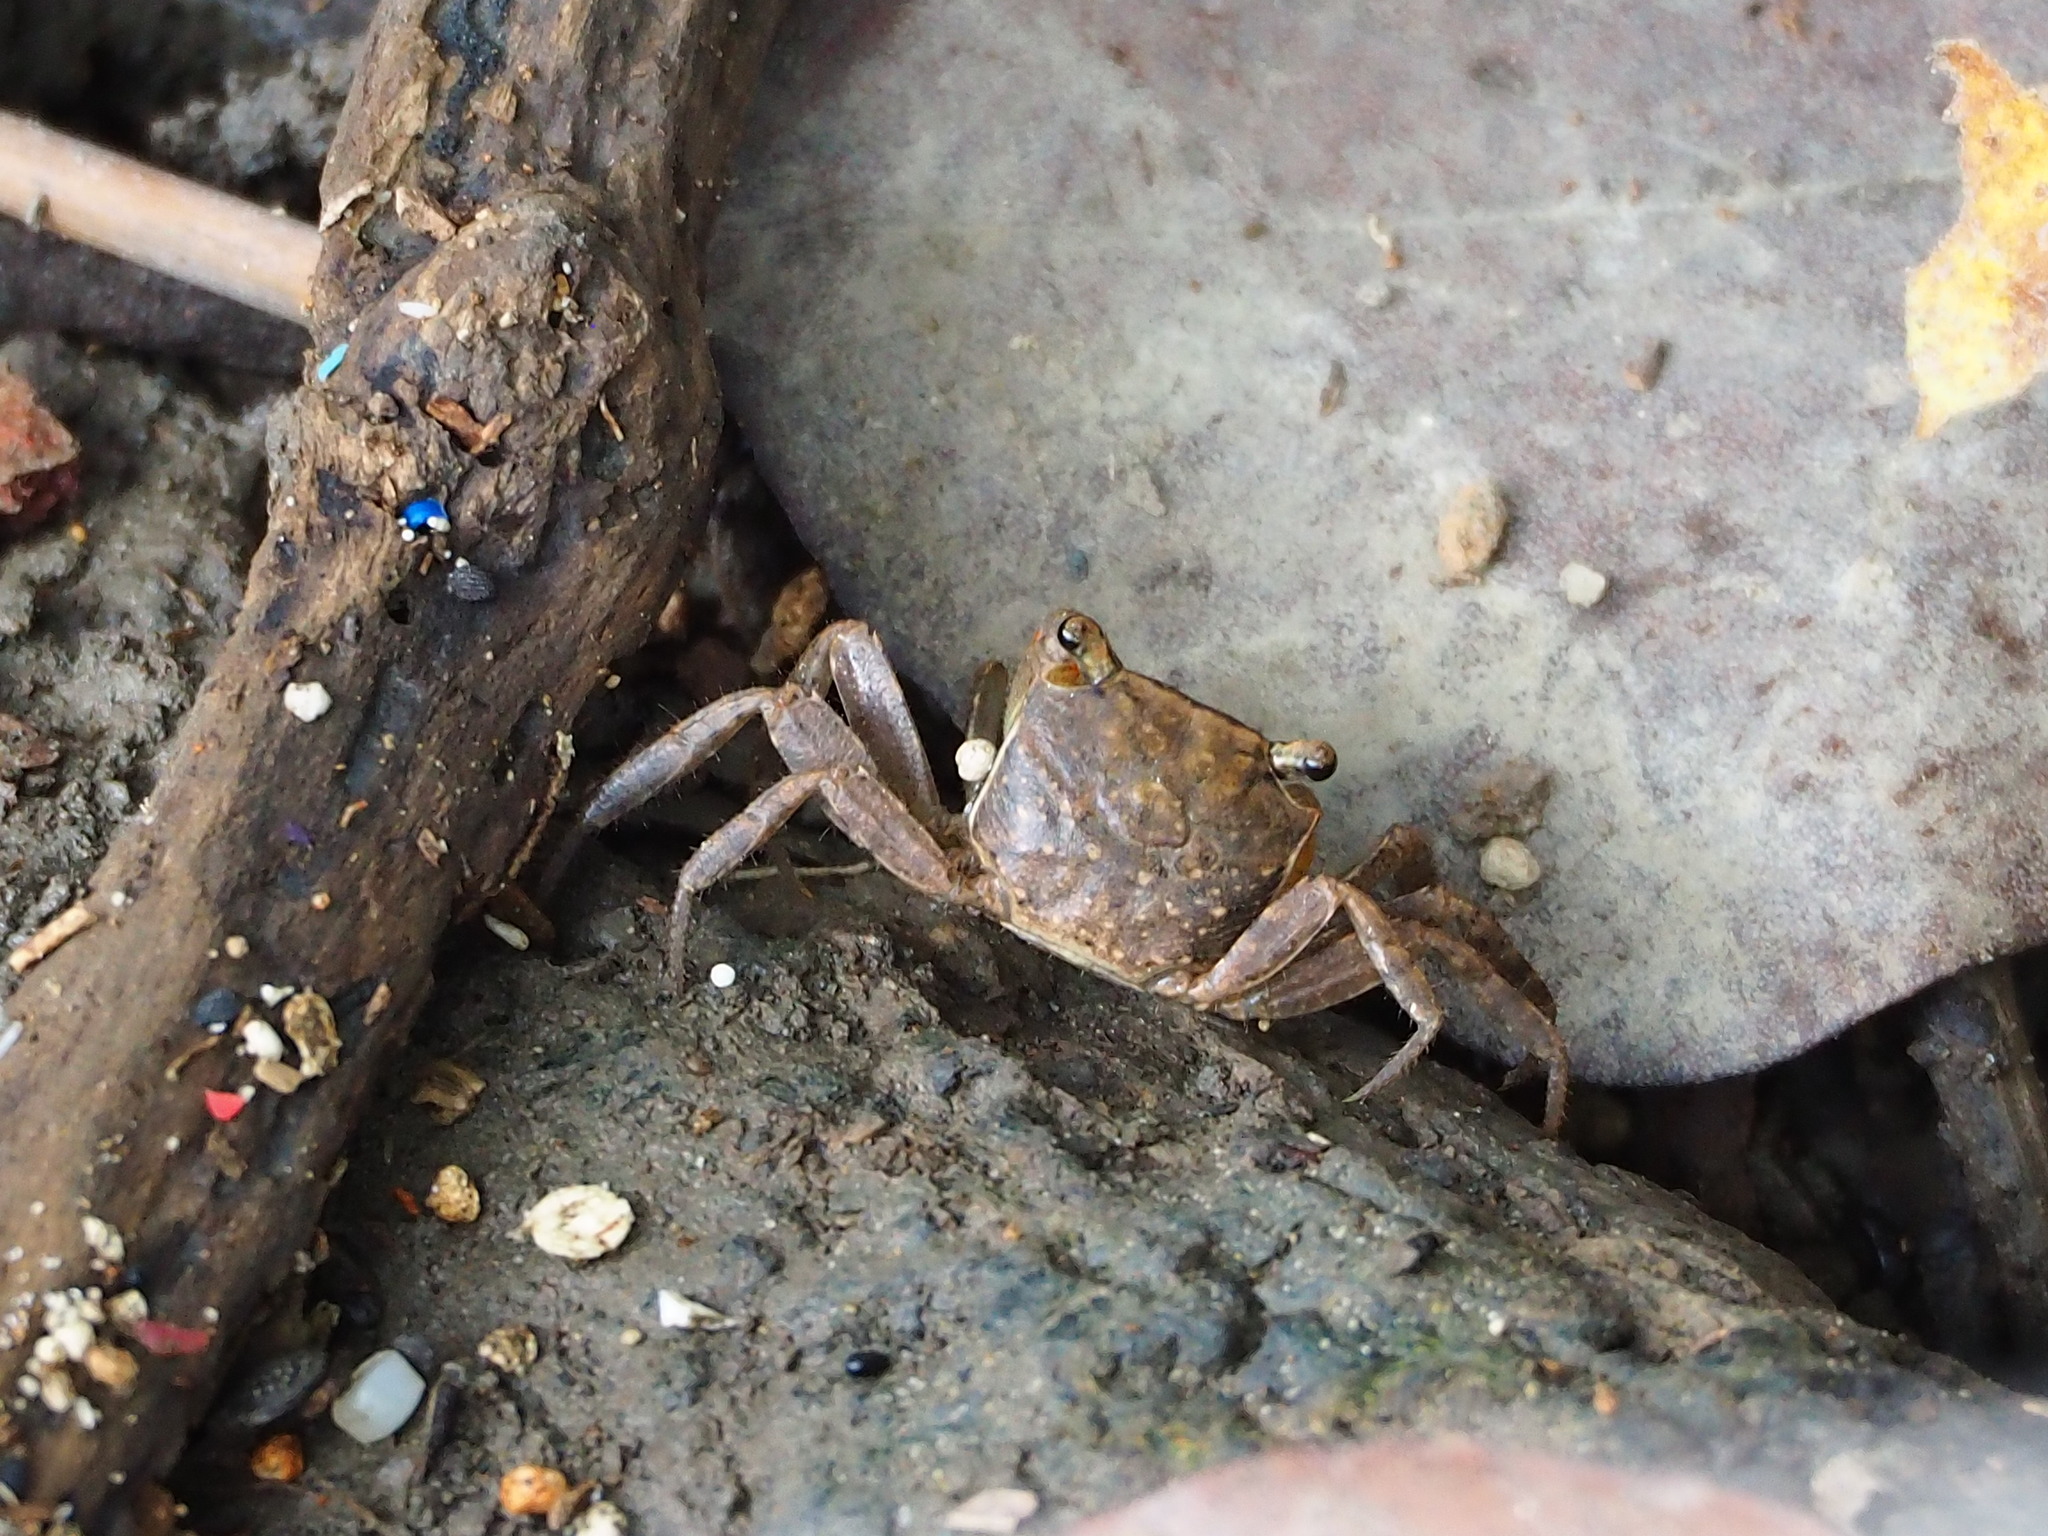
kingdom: Animalia
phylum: Arthropoda
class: Malacostraca
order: Decapoda
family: Sesarmidae
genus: Chiromantes
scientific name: Chiromantes haematocheir
